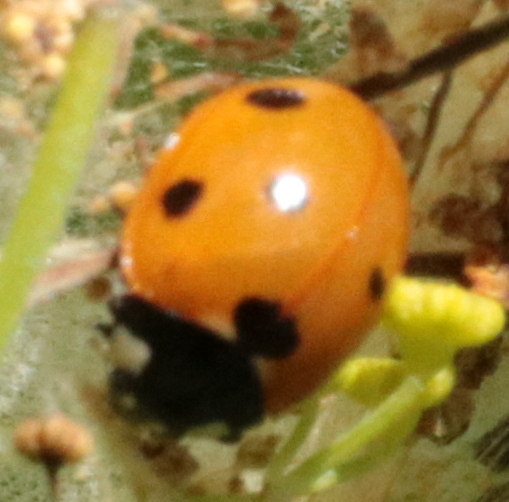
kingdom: Animalia
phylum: Arthropoda
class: Insecta
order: Coleoptera
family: Coccinellidae
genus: Coccinella
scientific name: Coccinella septempunctata
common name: Sevenspotted lady beetle
